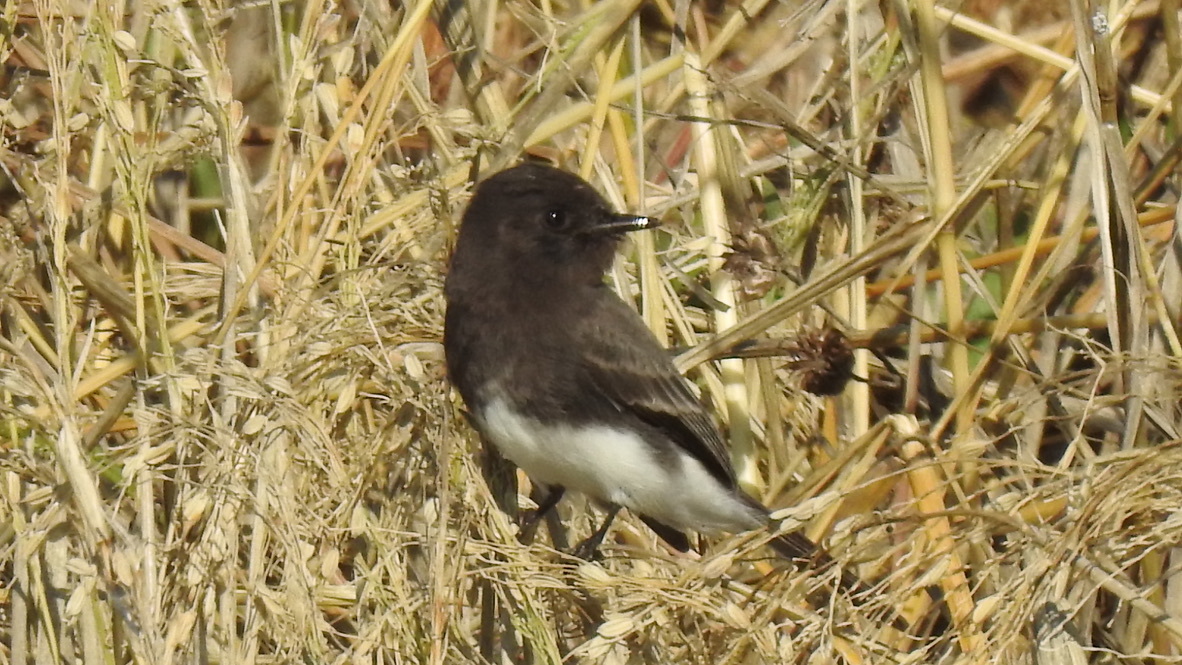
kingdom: Animalia
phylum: Chordata
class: Aves
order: Passeriformes
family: Tyrannidae
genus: Sayornis
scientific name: Sayornis nigricans
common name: Black phoebe
